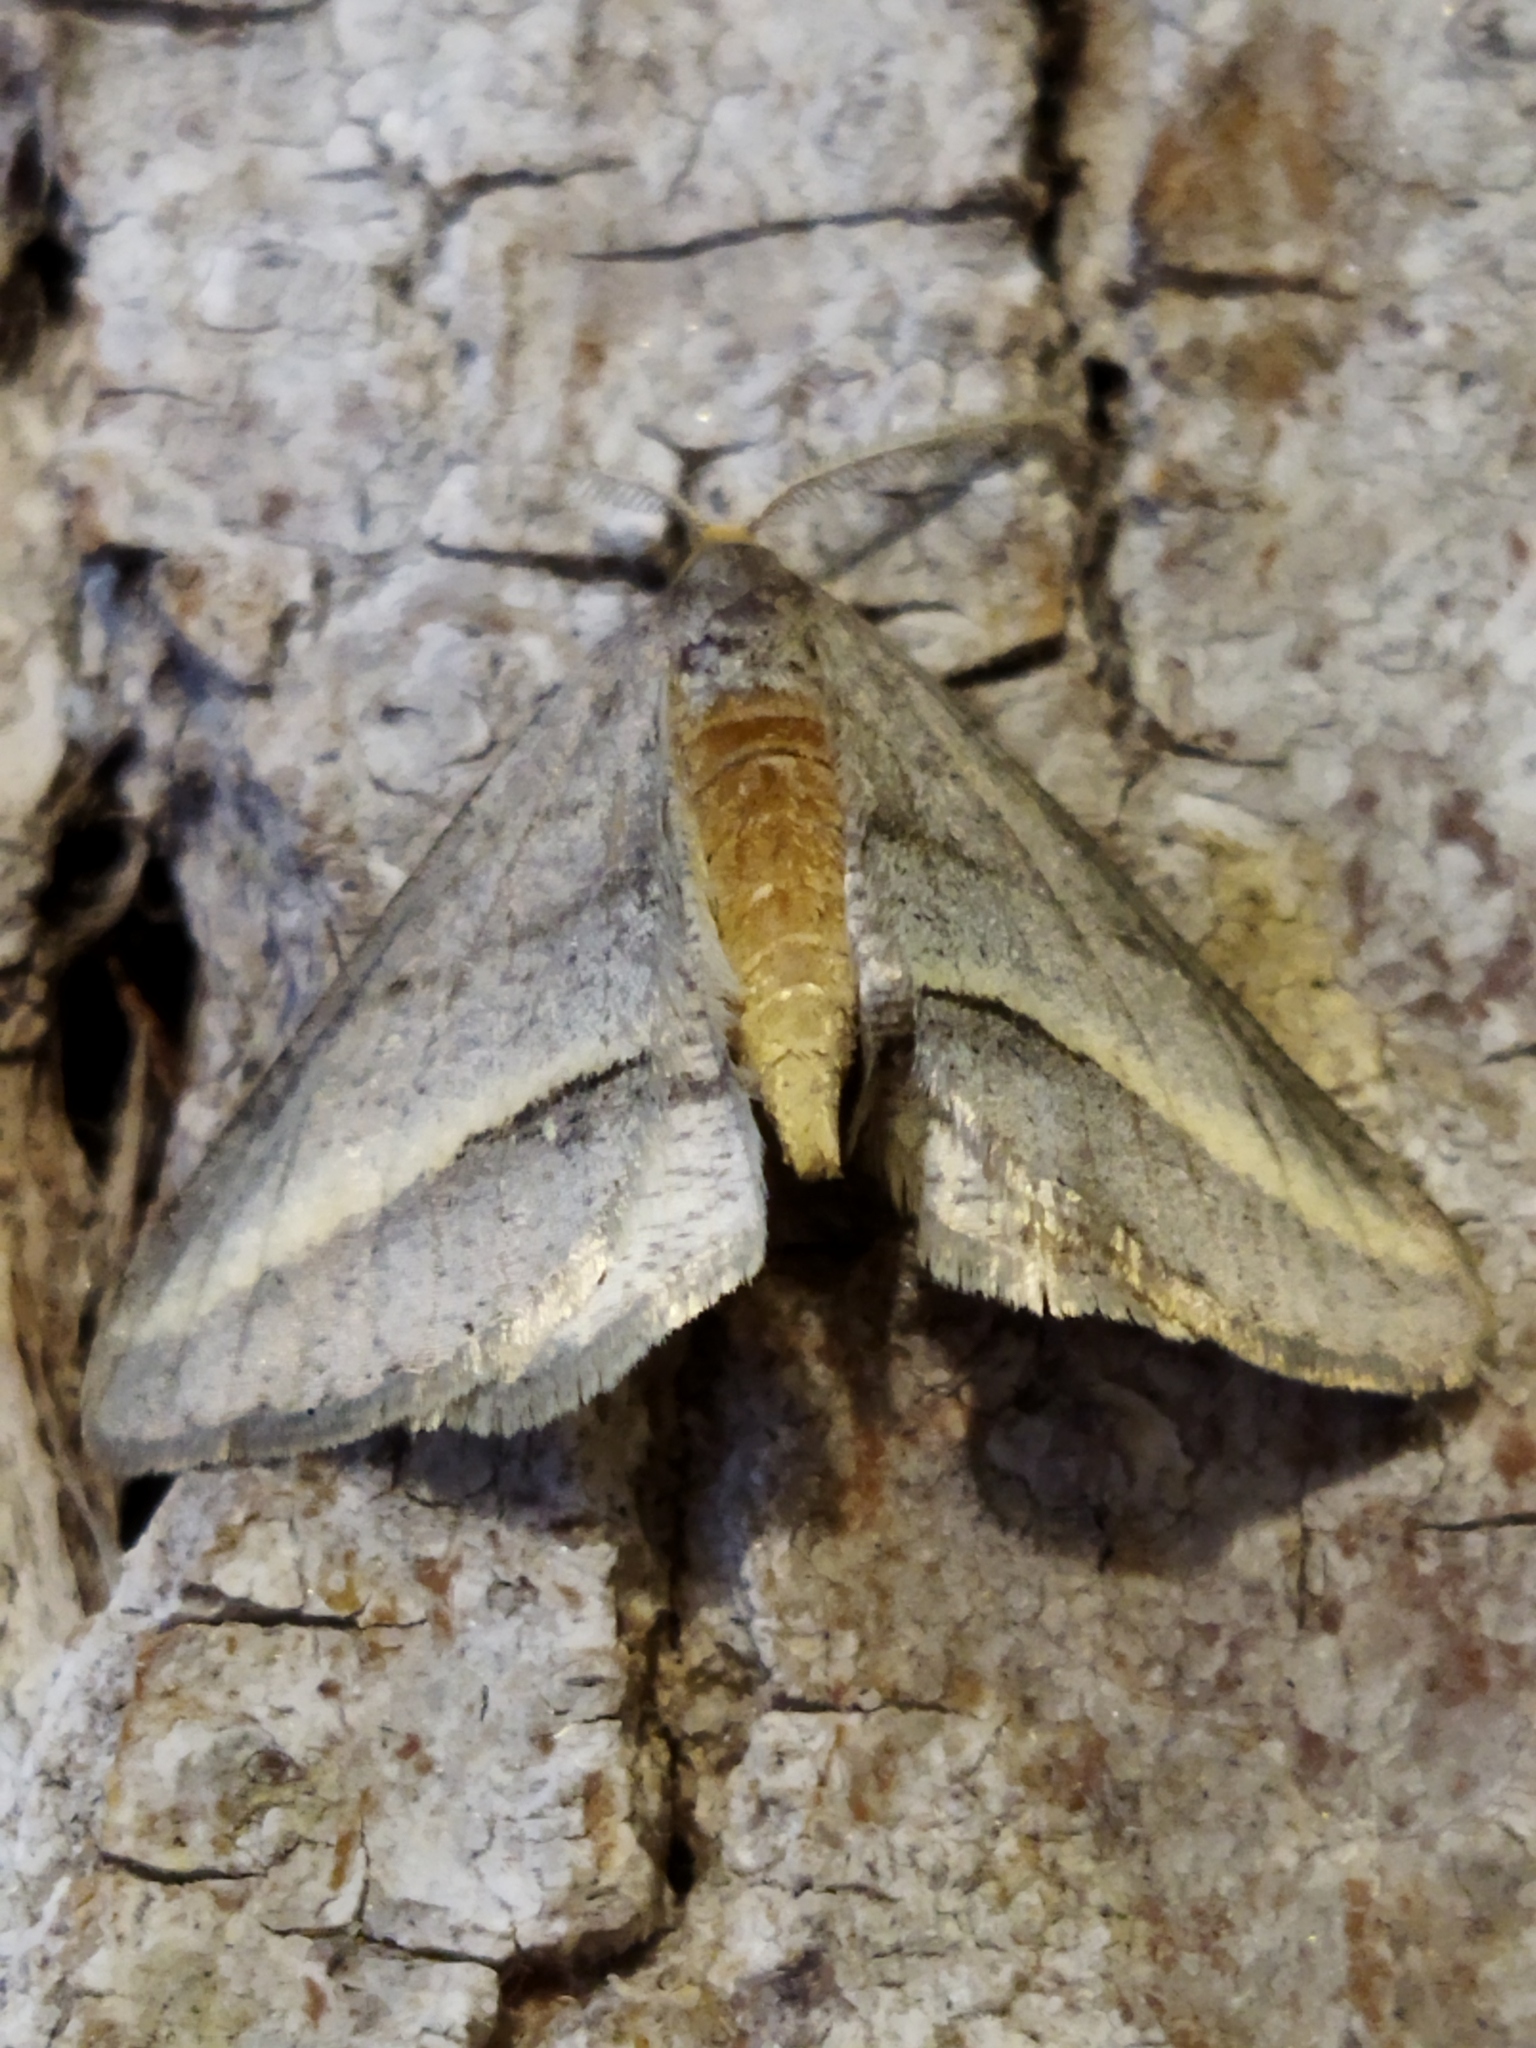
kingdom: Animalia
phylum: Arthropoda
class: Insecta
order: Lepidoptera
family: Geometridae
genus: Tephrina
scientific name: Tephrina arenacearia
